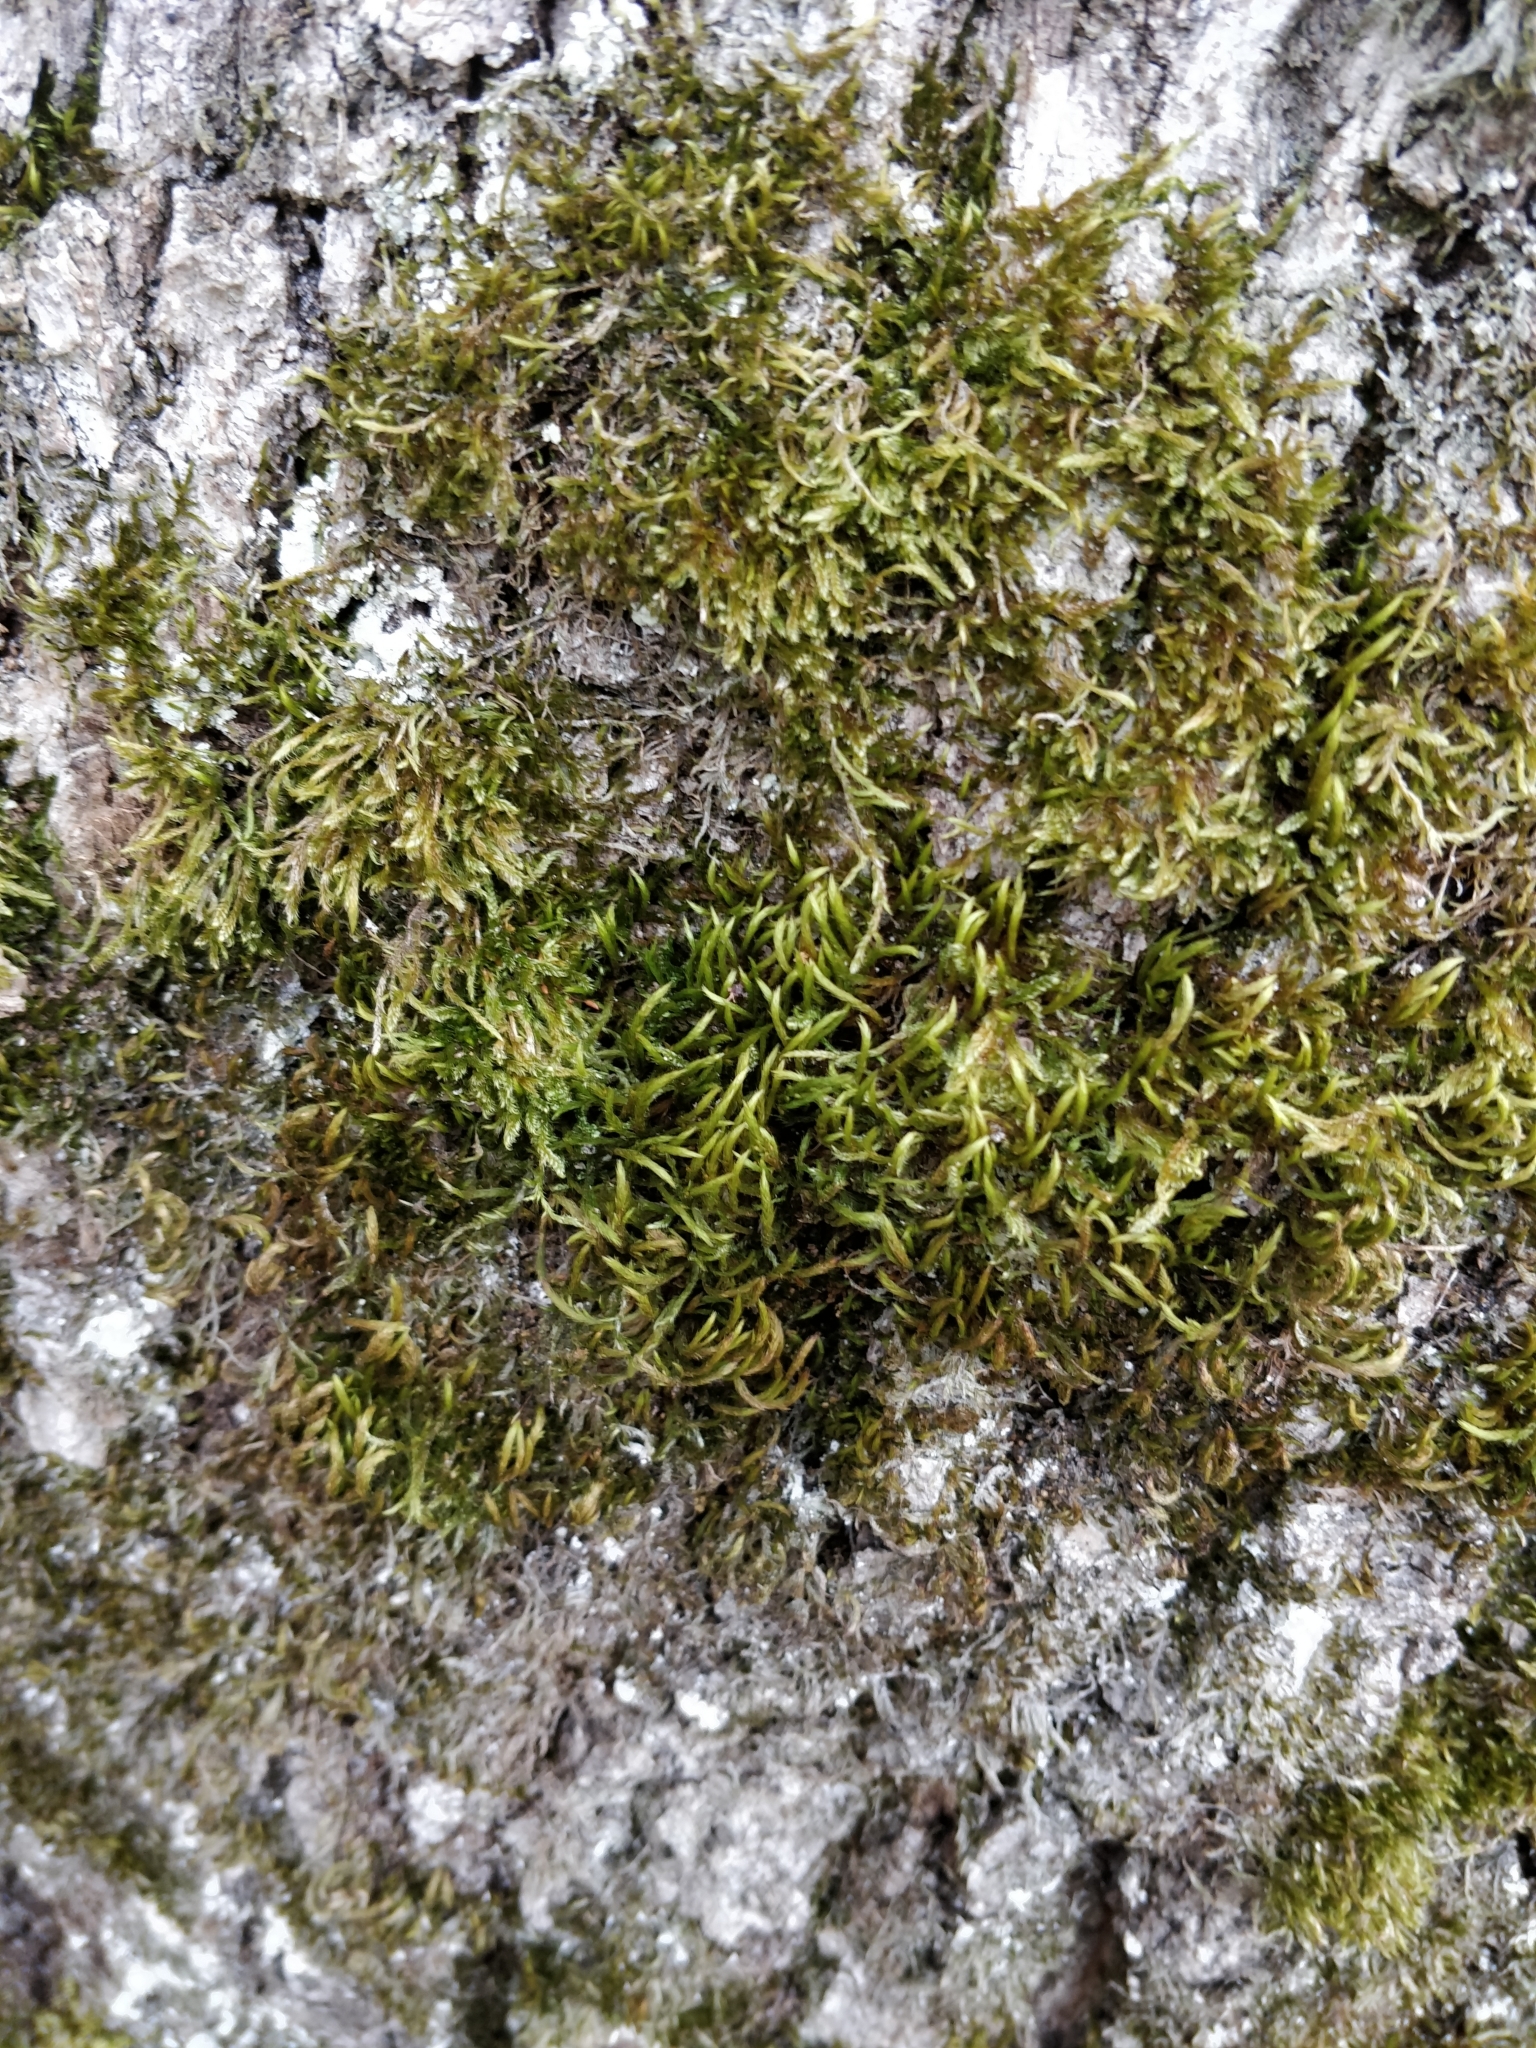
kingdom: Plantae
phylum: Bryophyta
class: Bryopsida
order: Hypnales
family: Leucodontaceae
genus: Leucodon
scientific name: Leucodon sciuroides
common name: Squirrel-tail moss
